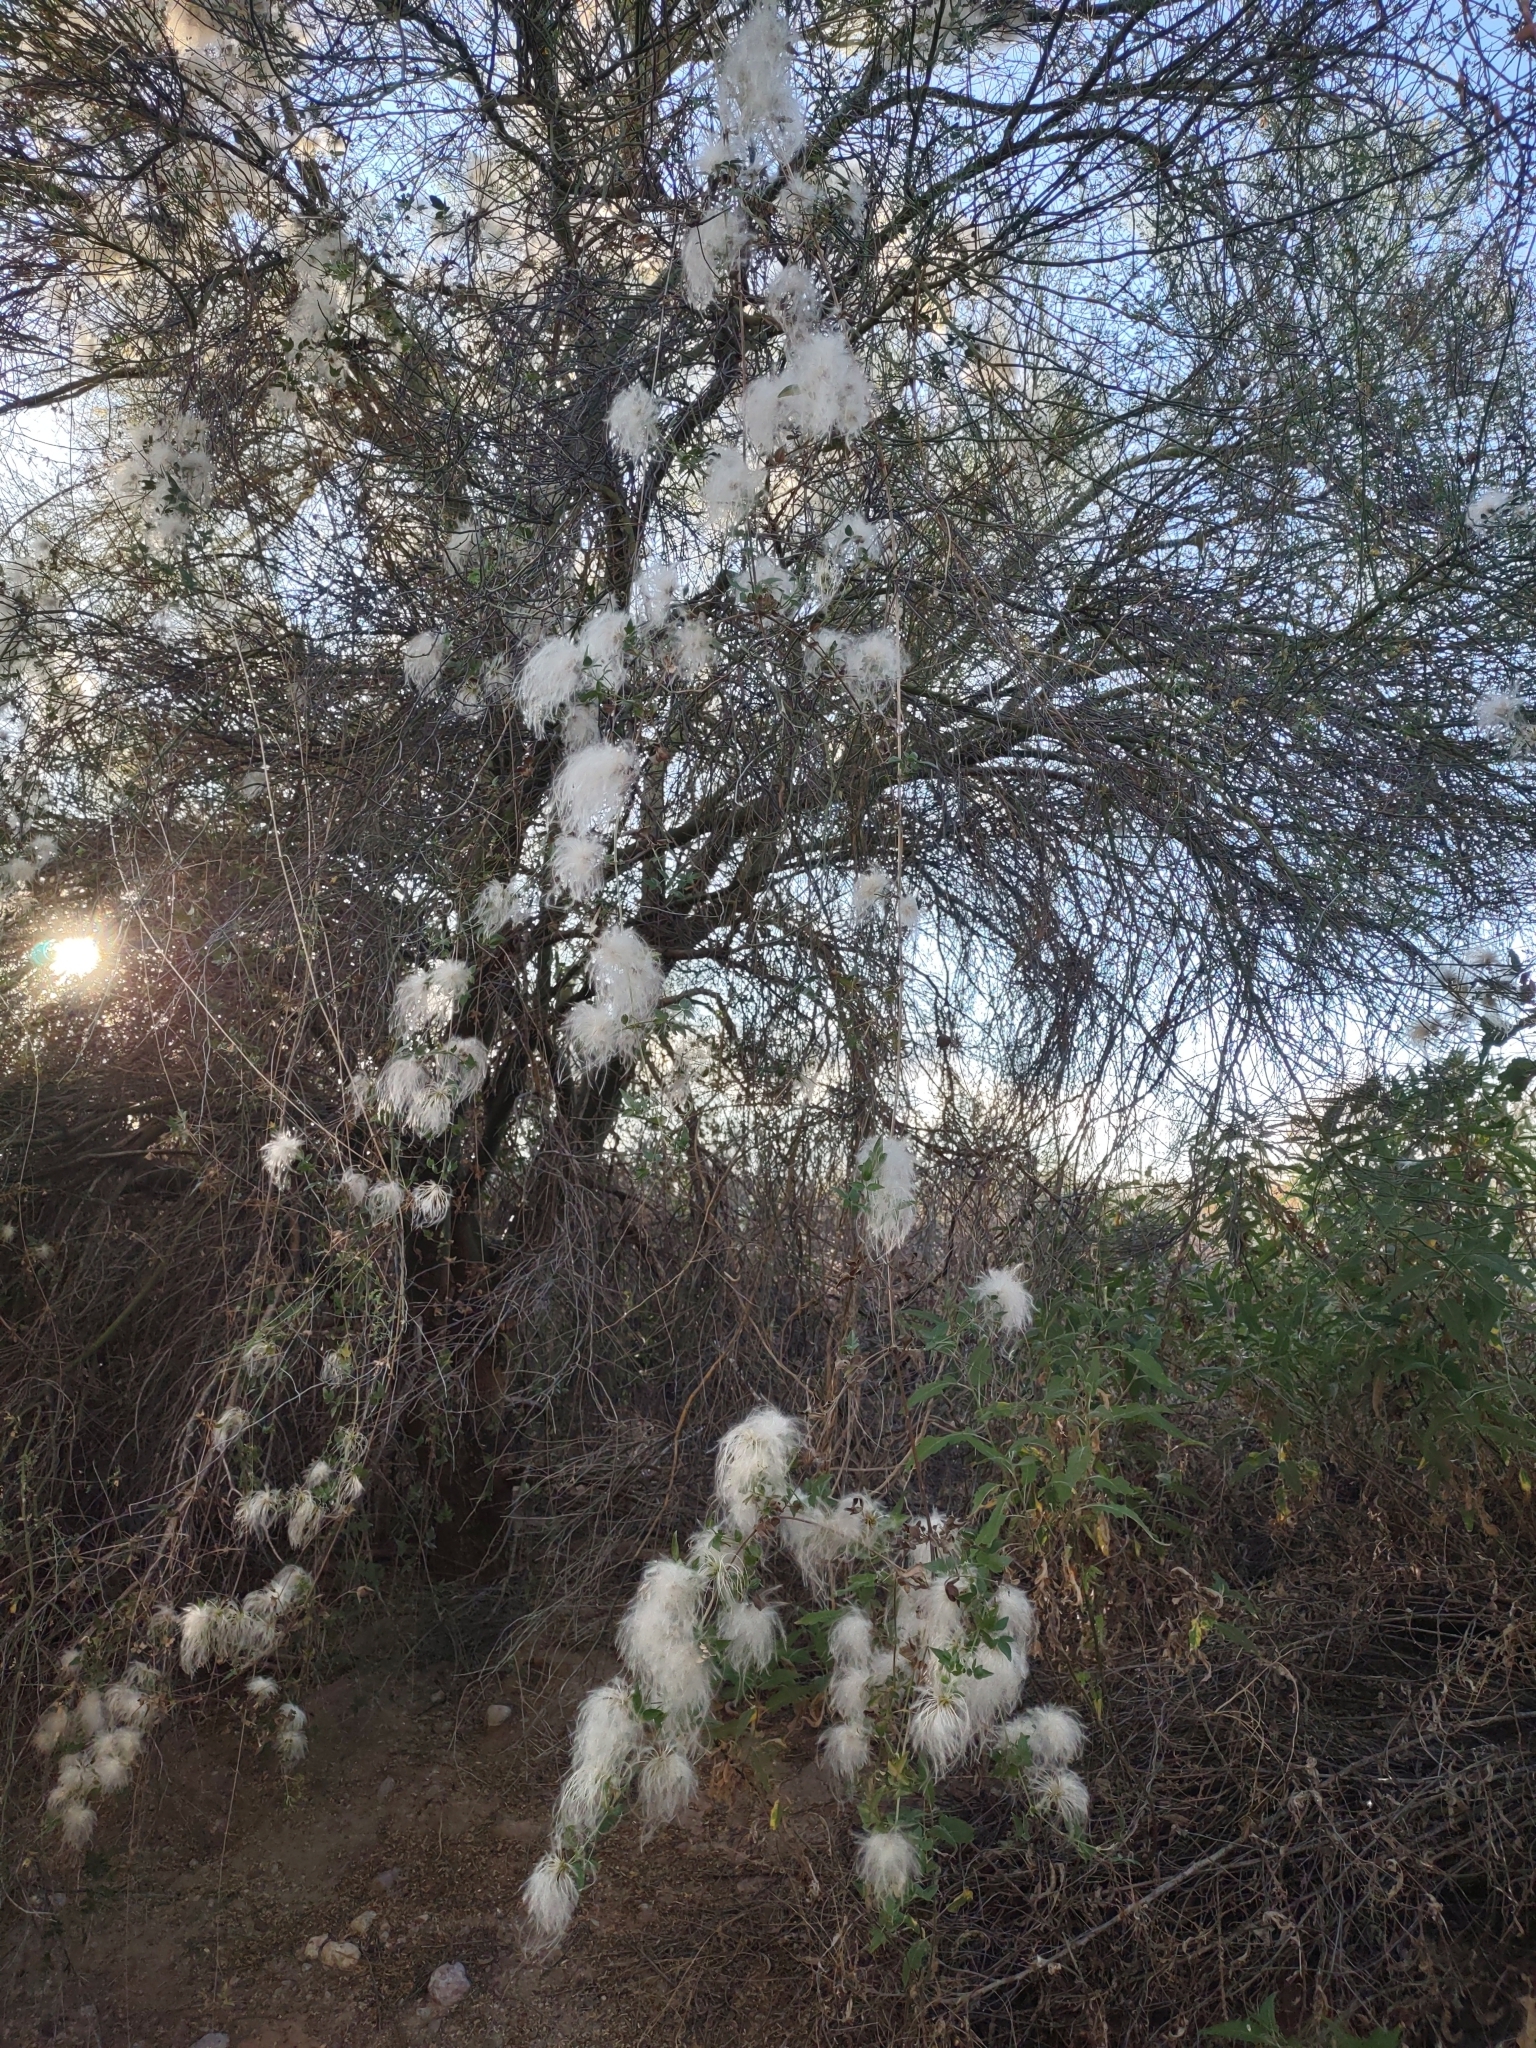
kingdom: Plantae
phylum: Tracheophyta
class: Magnoliopsida
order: Ranunculales
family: Ranunculaceae
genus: Clematis
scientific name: Clematis drummondii
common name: Texas virgin's bower
